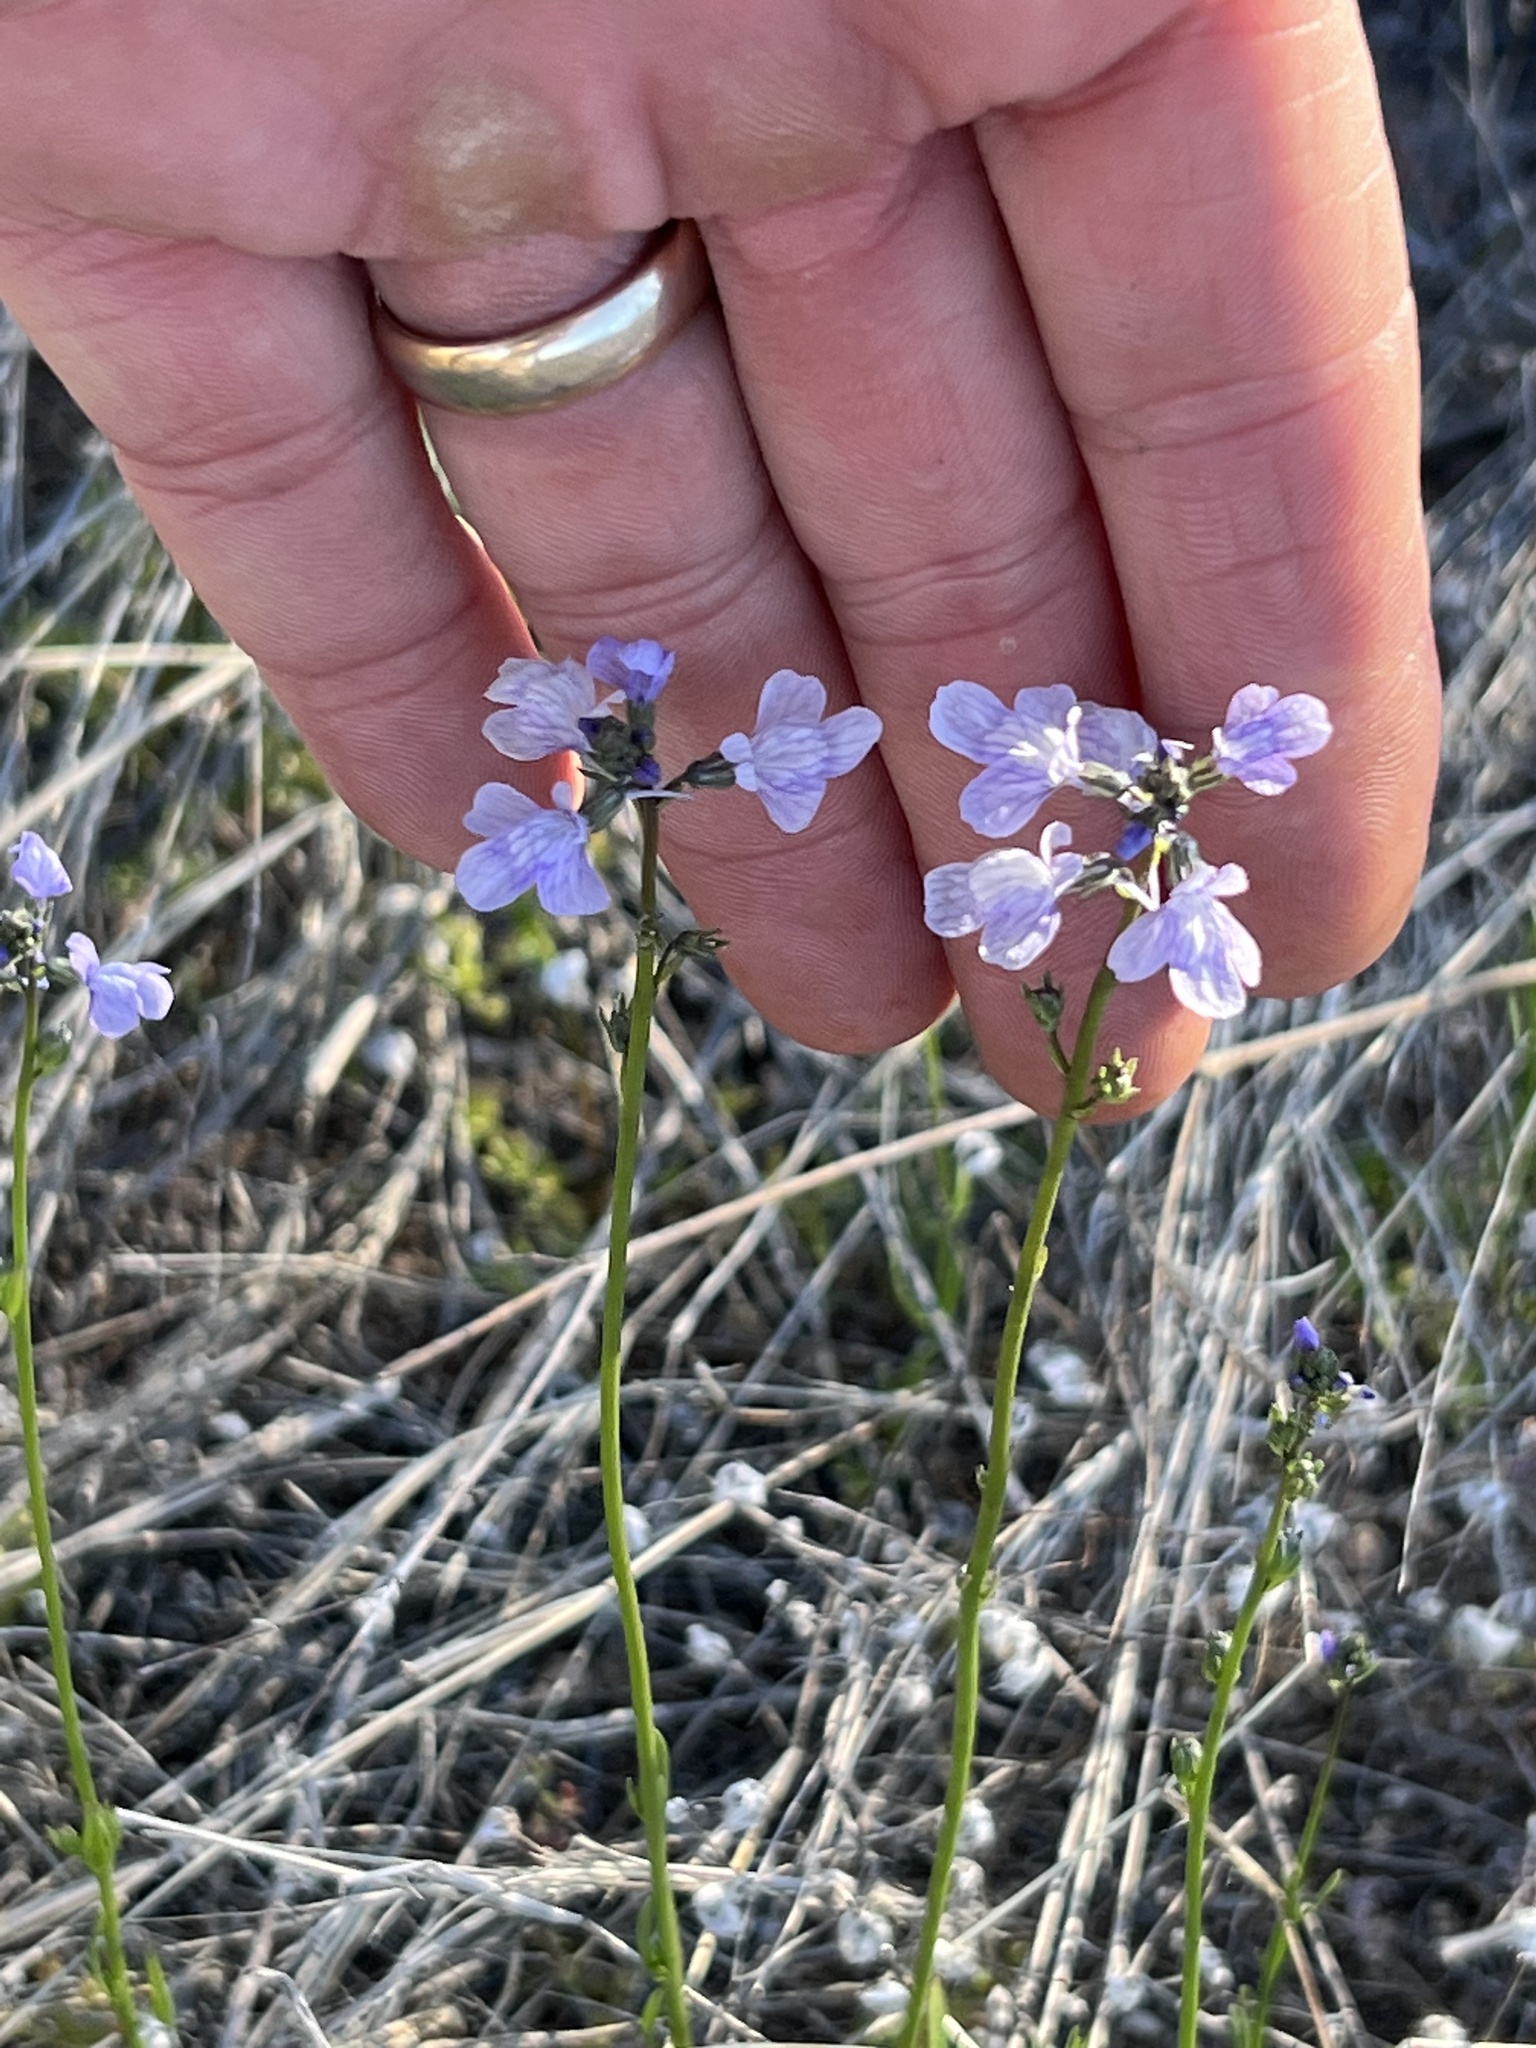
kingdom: Plantae
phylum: Tracheophyta
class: Magnoliopsida
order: Lamiales
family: Plantaginaceae
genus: Nuttallanthus
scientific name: Nuttallanthus texanus
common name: Texas toadflax
